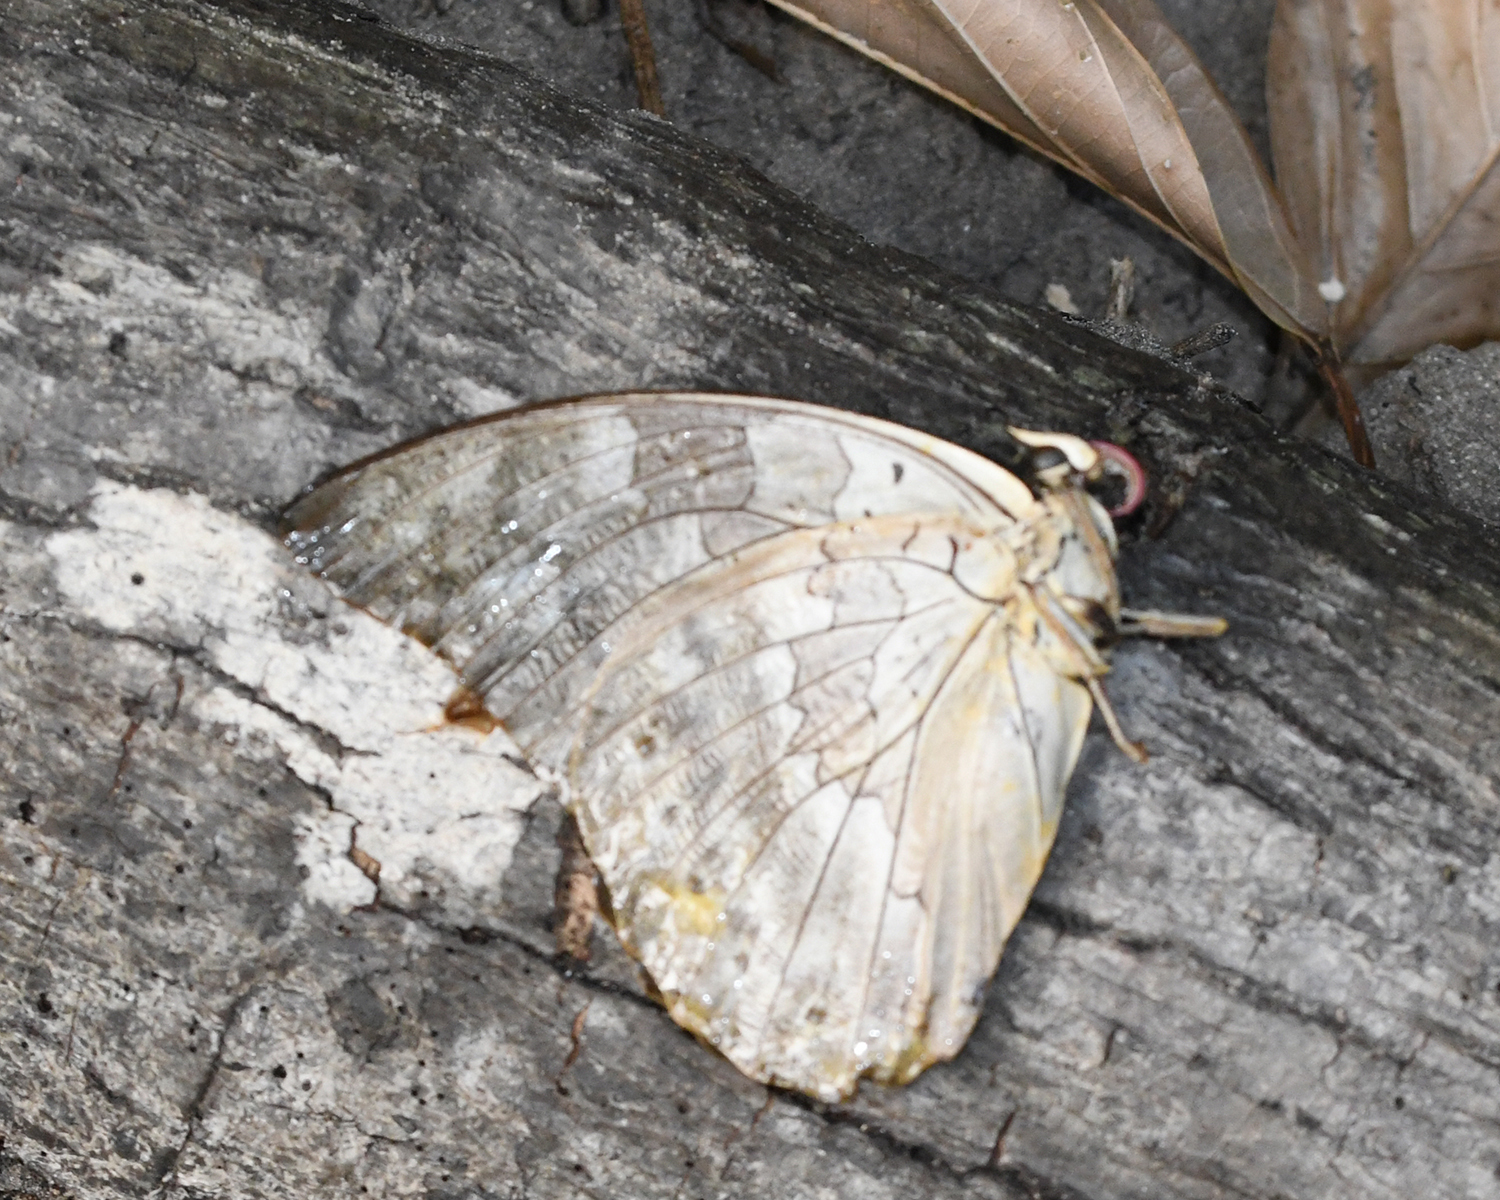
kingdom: Animalia
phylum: Arthropoda
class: Insecta
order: Lepidoptera
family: Nymphalidae
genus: Prepona
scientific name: Prepona demophoon
